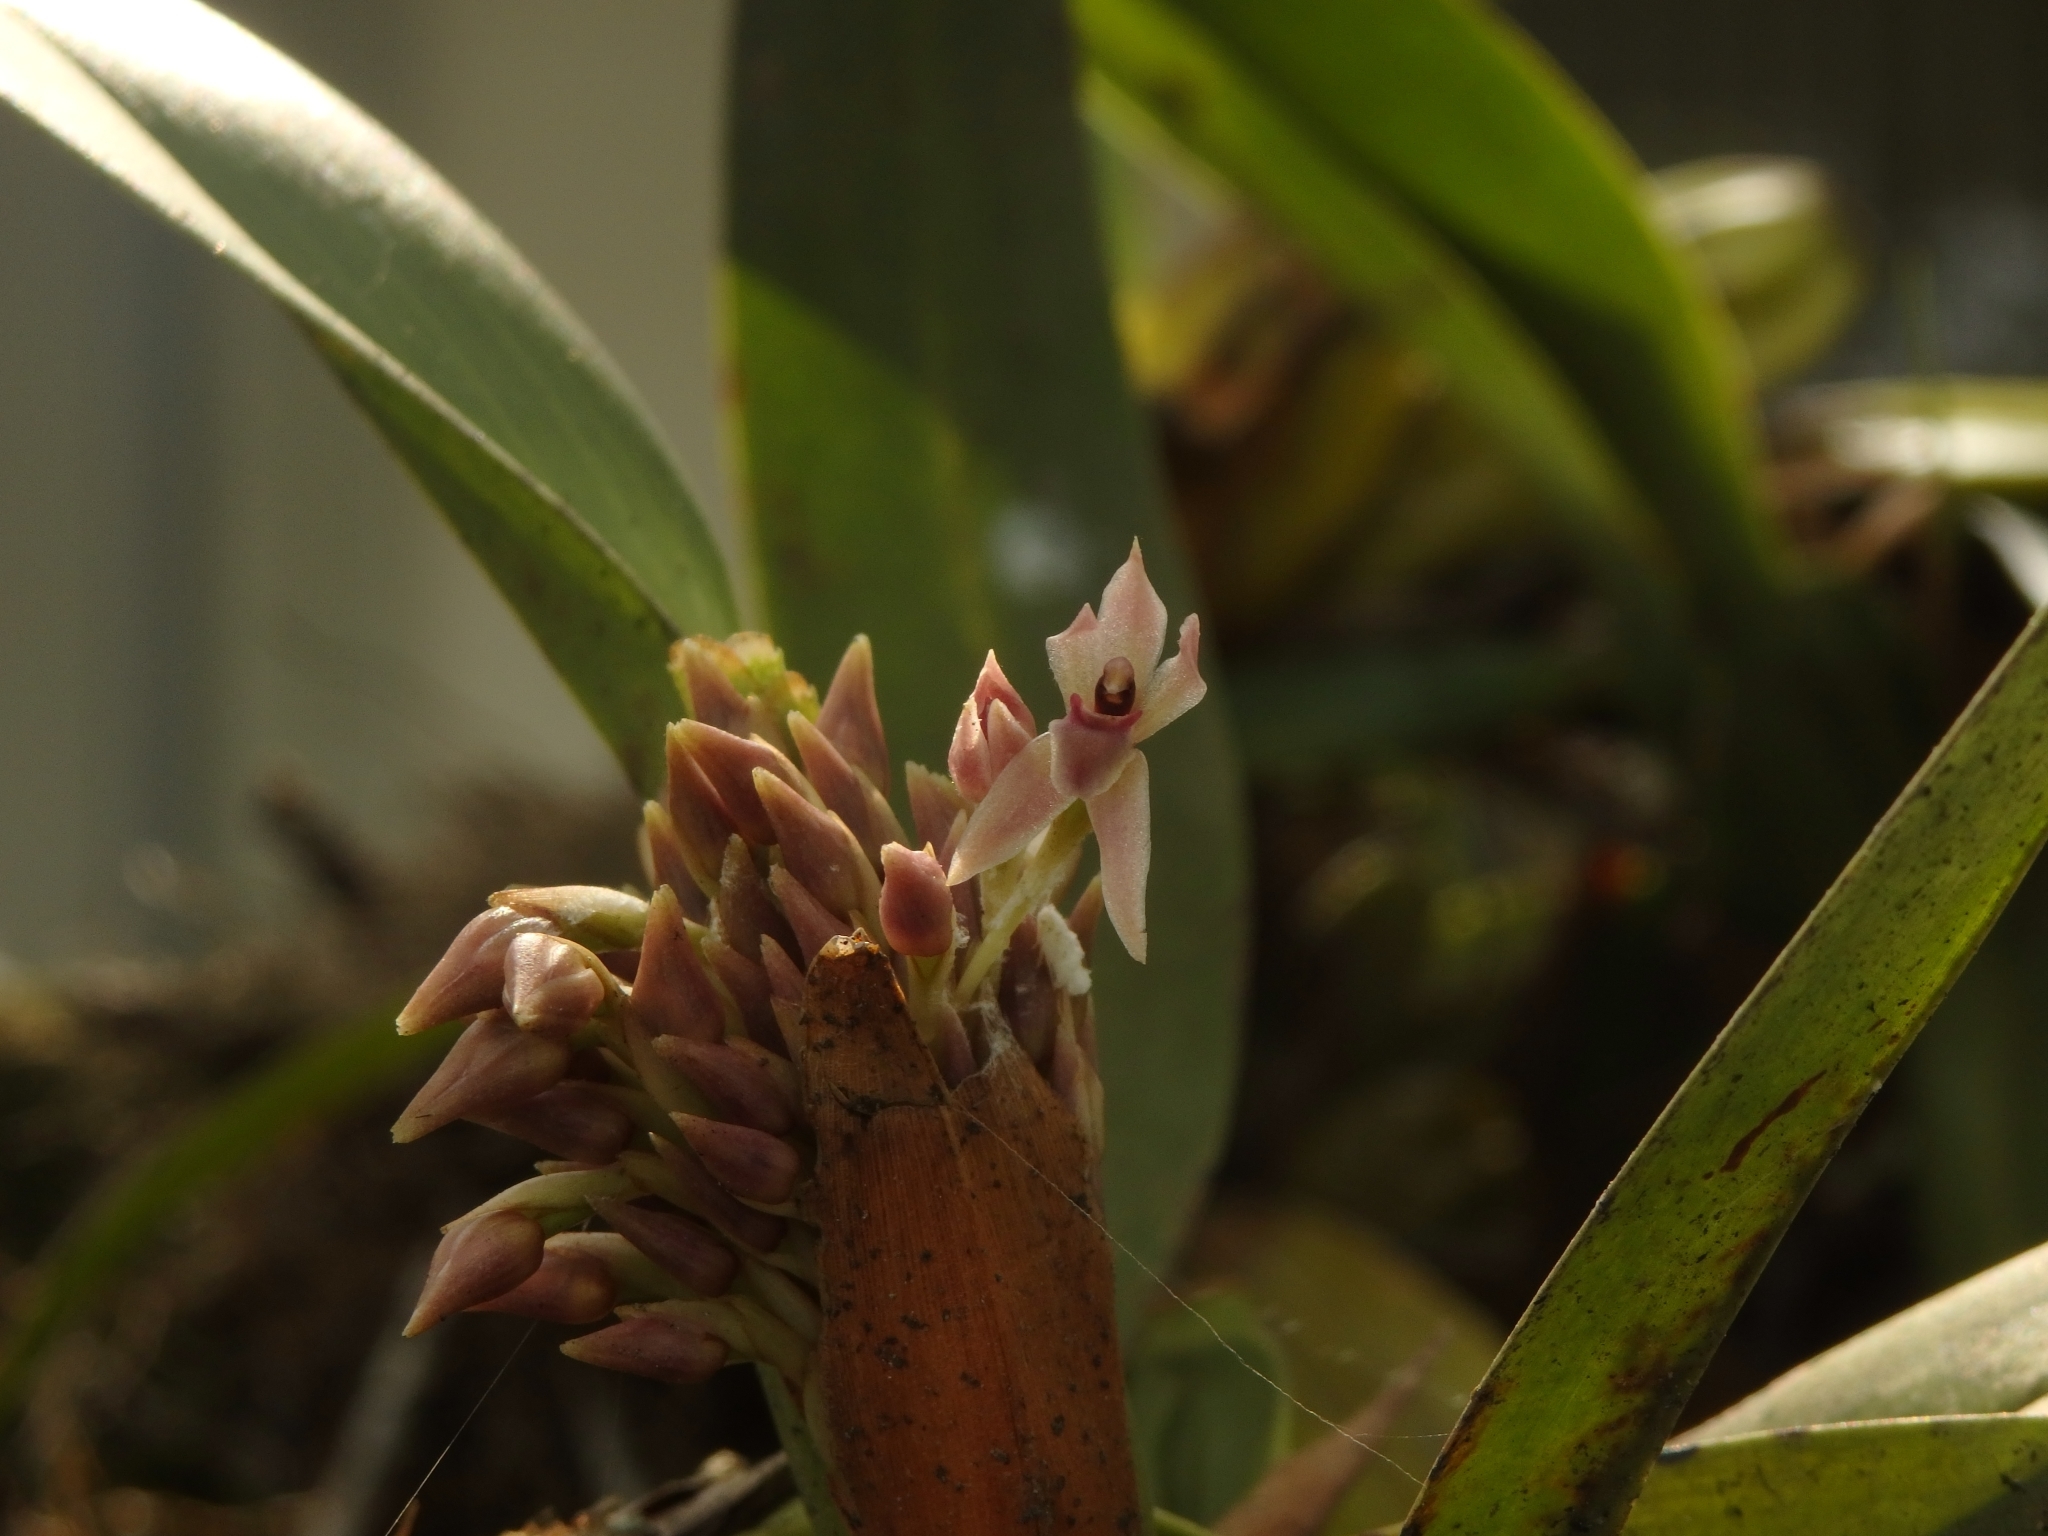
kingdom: Plantae
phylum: Tracheophyta
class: Liliopsida
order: Asparagales
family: Orchidaceae
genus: Maxillaria
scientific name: Maxillaria densa
